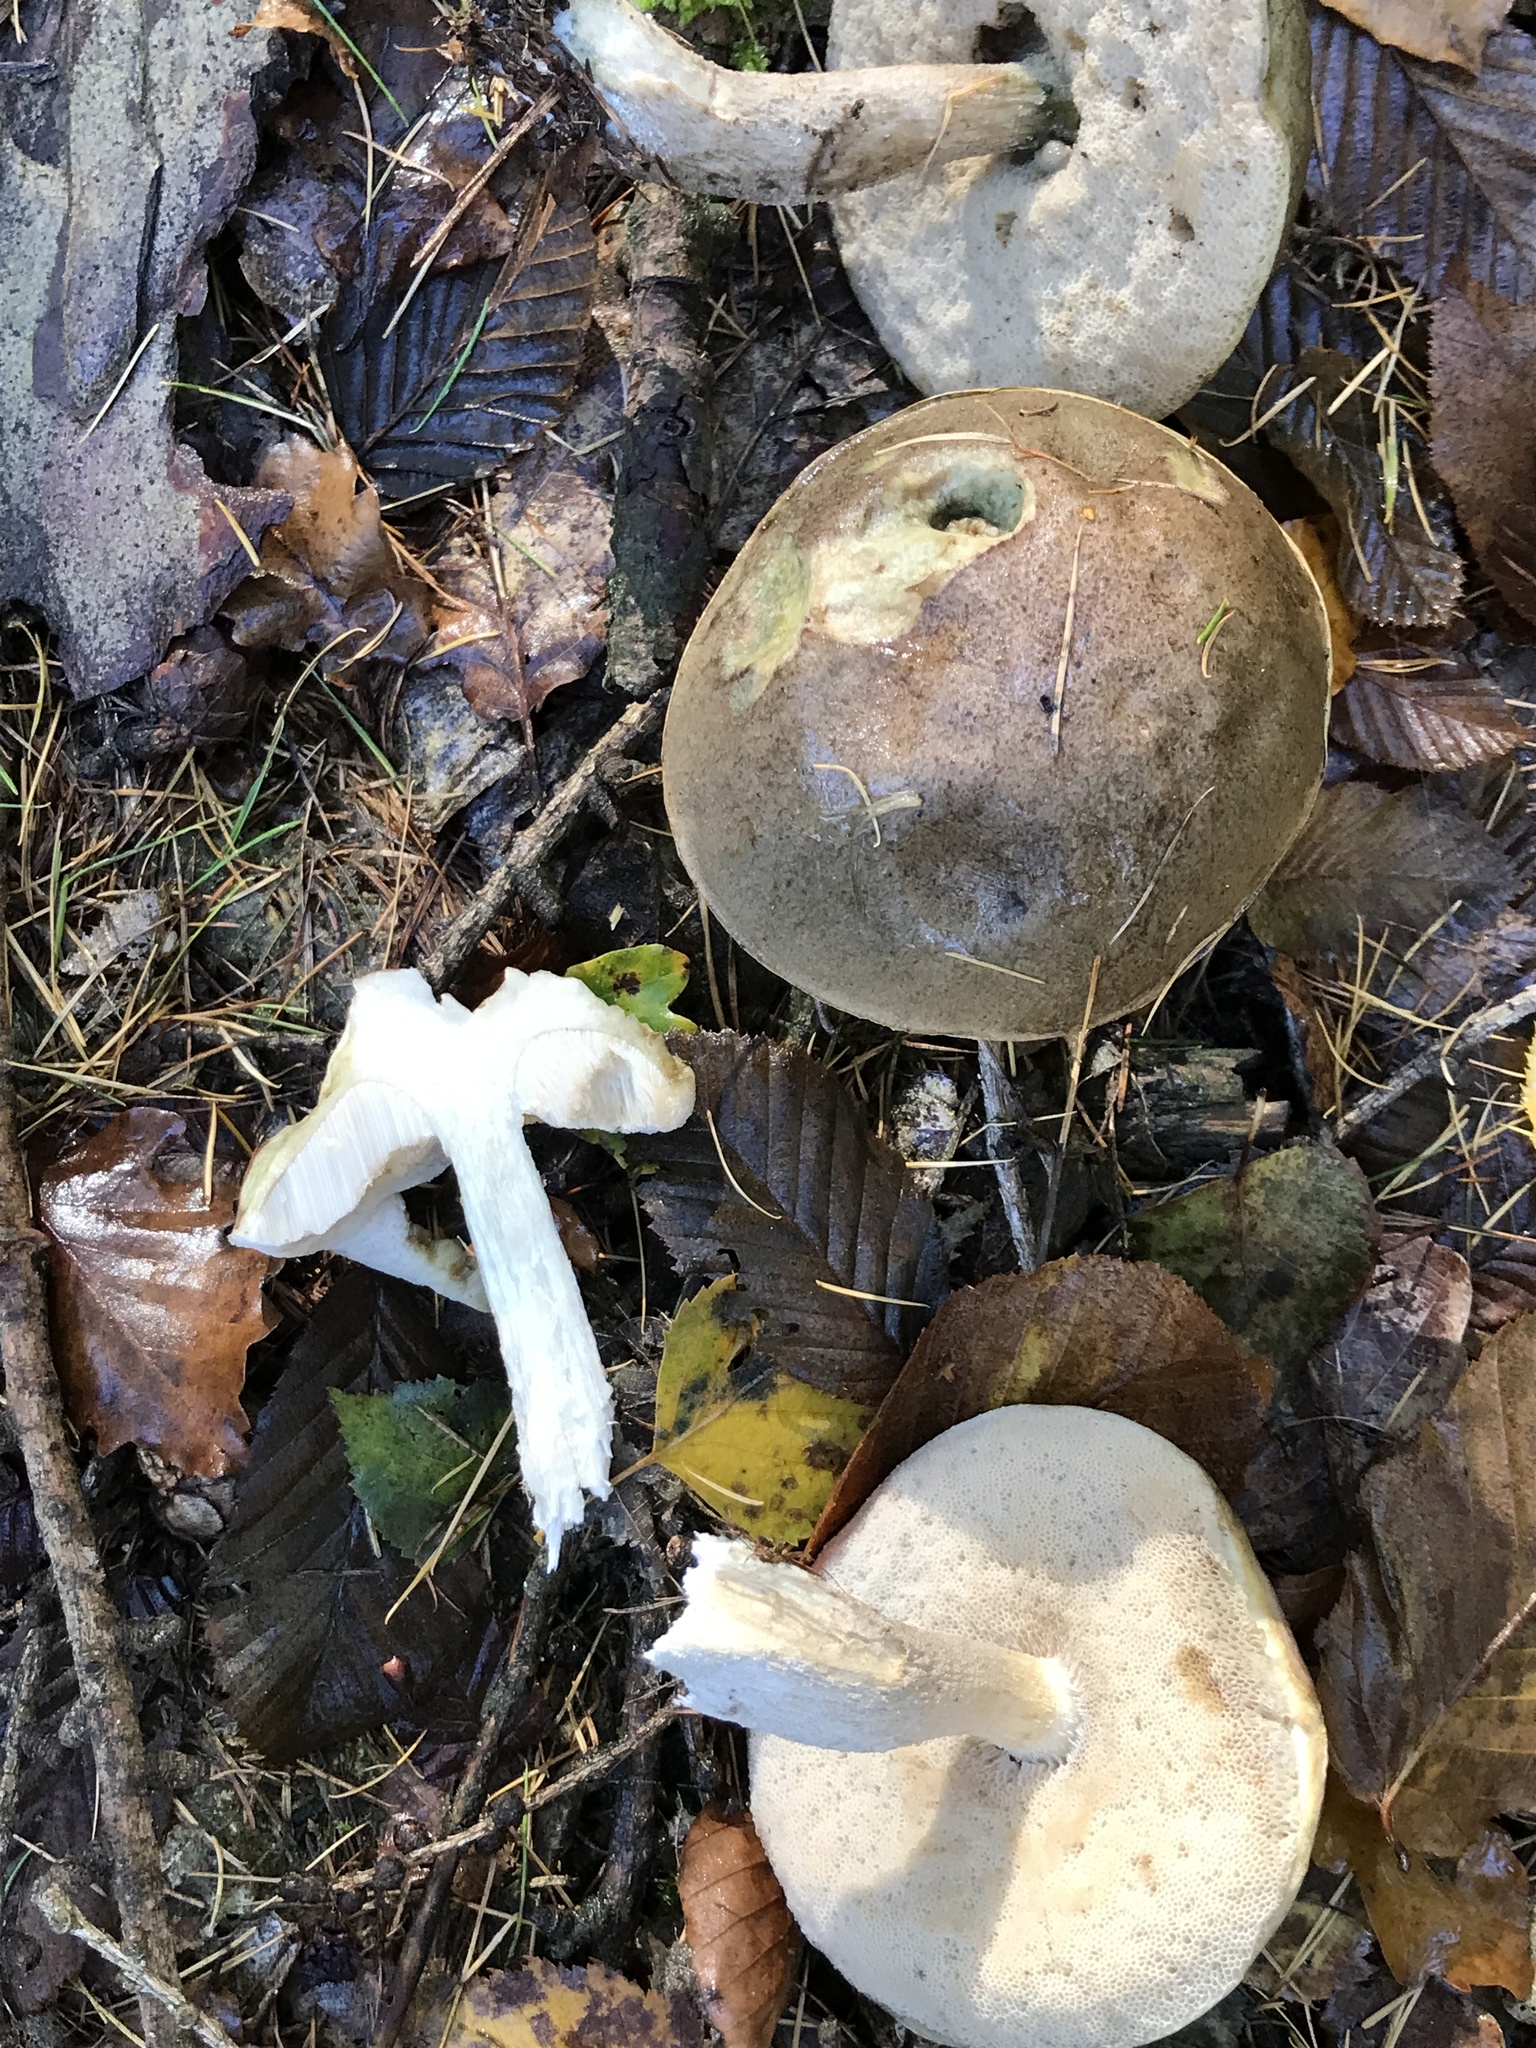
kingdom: Fungi
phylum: Basidiomycota
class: Agaricomycetes
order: Boletales
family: Boletaceae
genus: Leccinum
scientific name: Leccinum cyaneobasileucum
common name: Greyshank bolete
